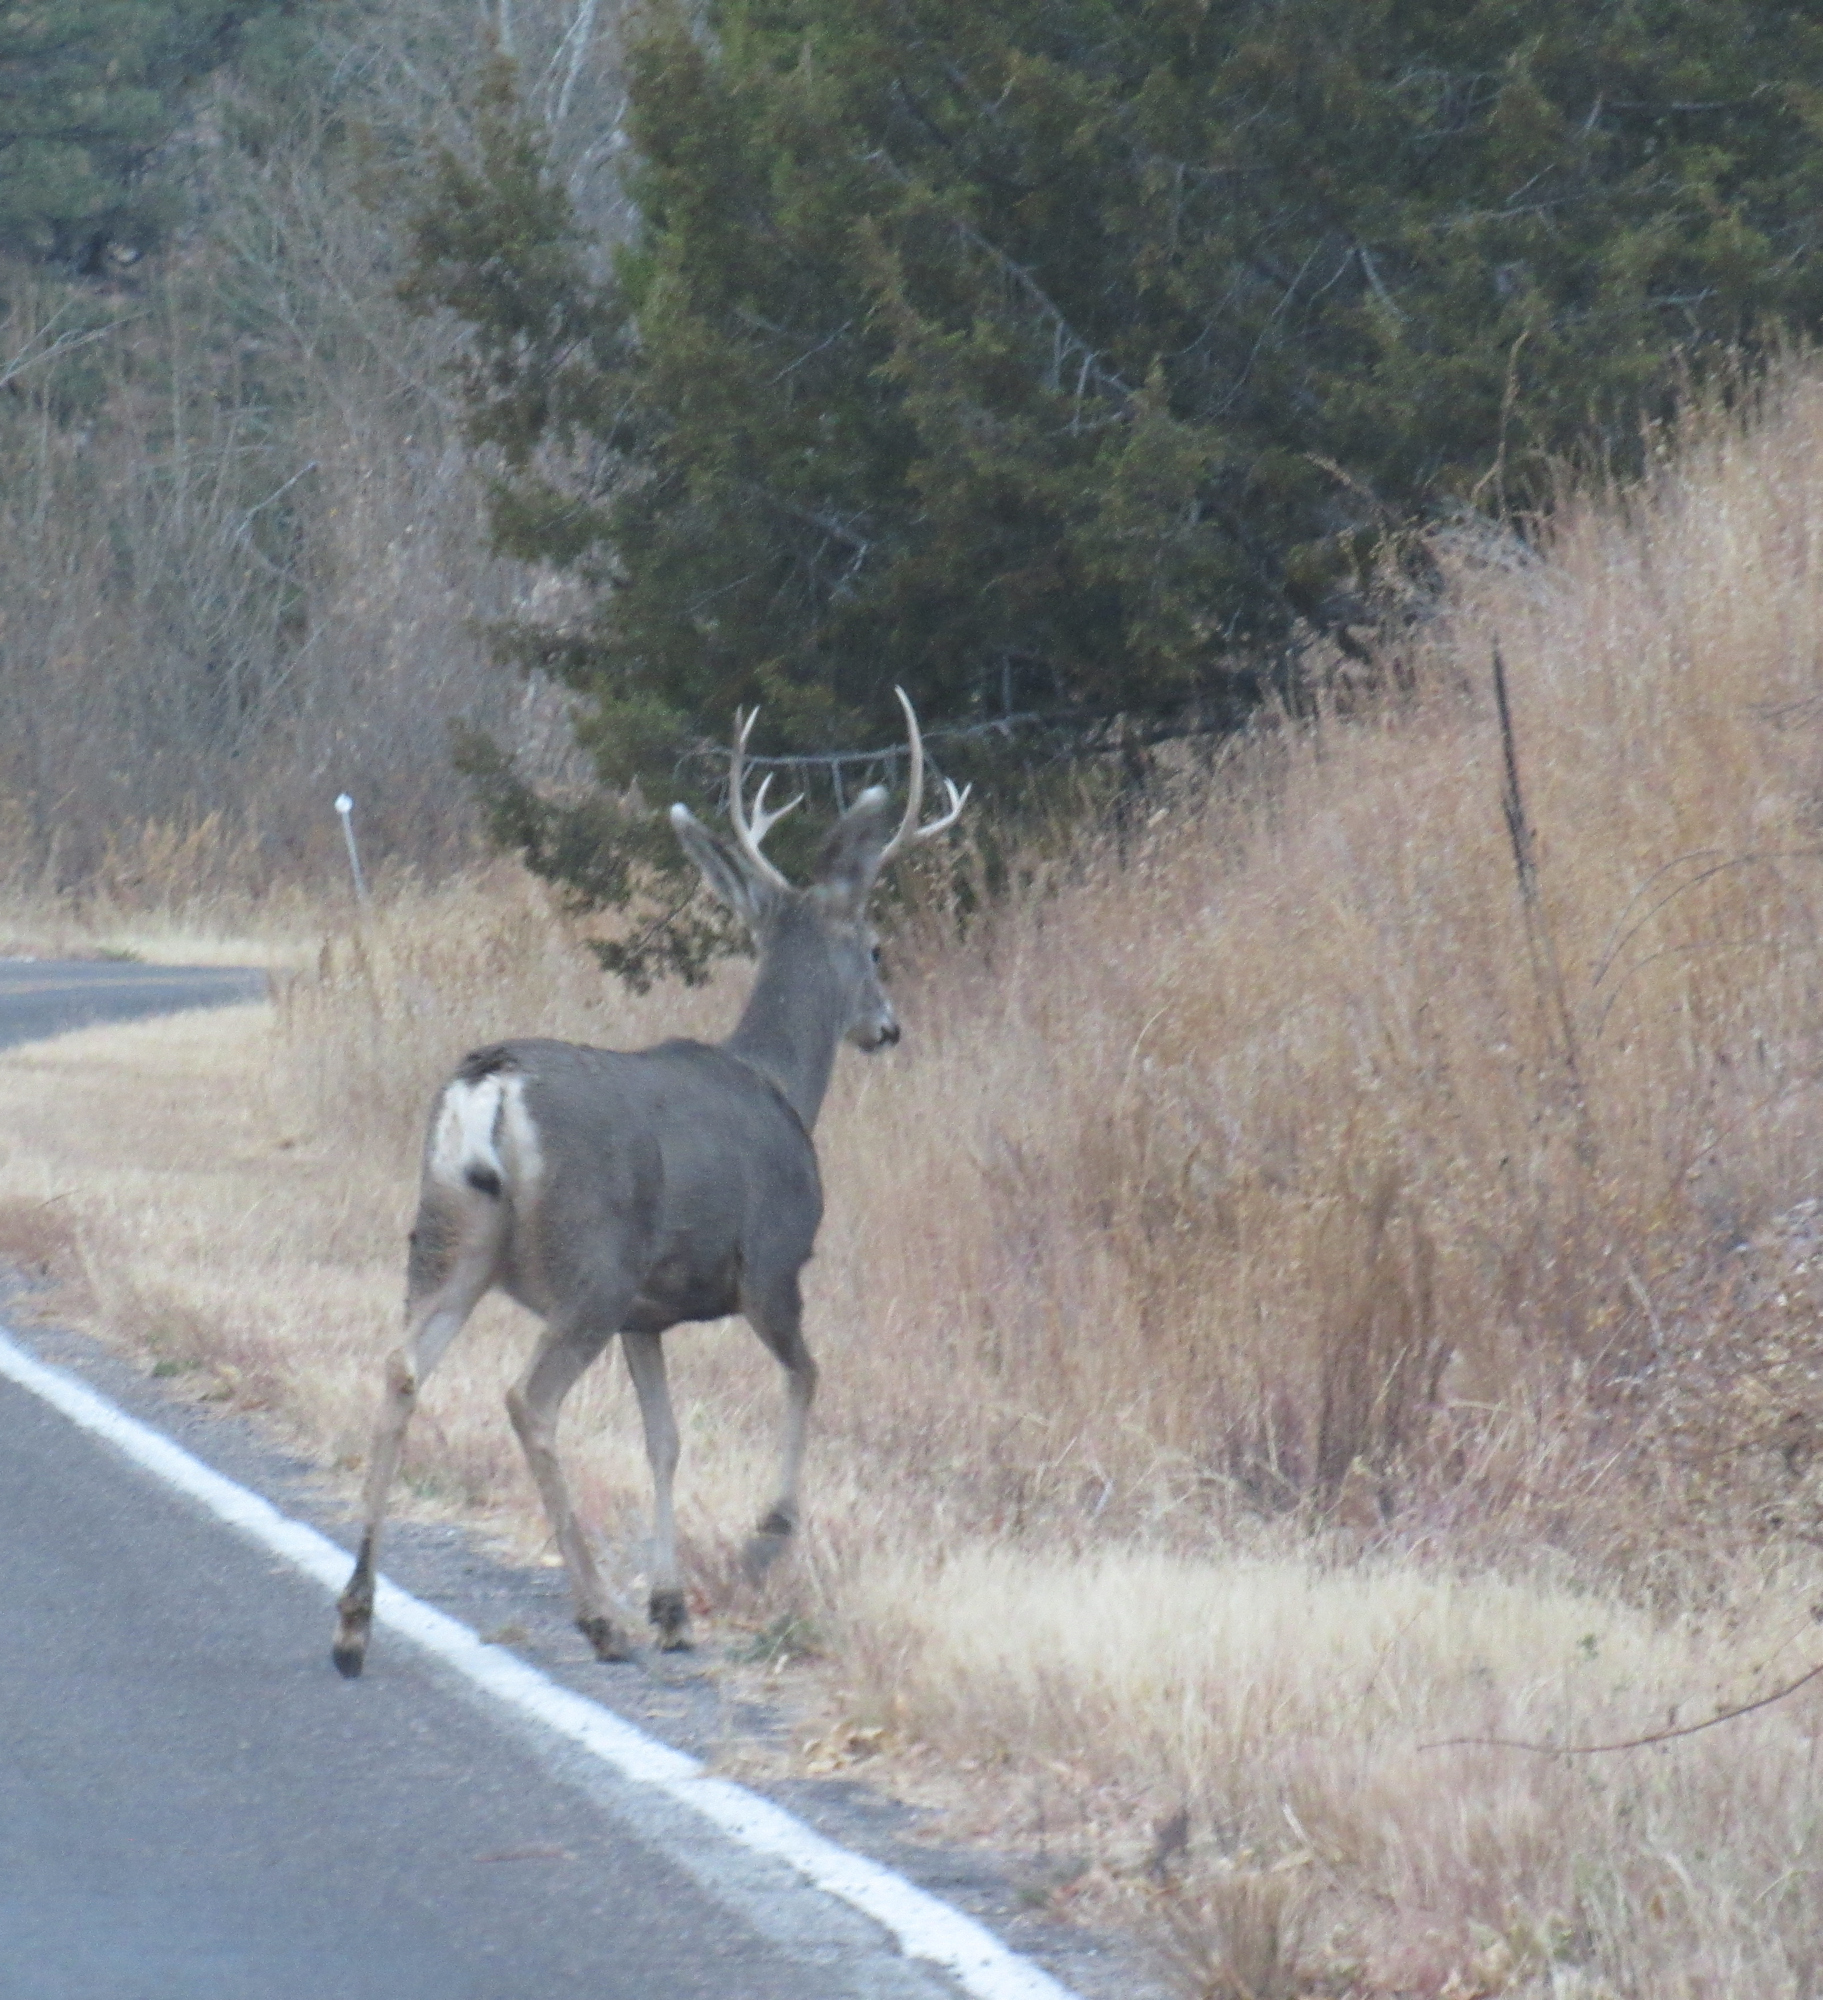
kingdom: Animalia
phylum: Chordata
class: Mammalia
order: Artiodactyla
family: Cervidae
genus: Odocoileus
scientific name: Odocoileus hemionus
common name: Mule deer
